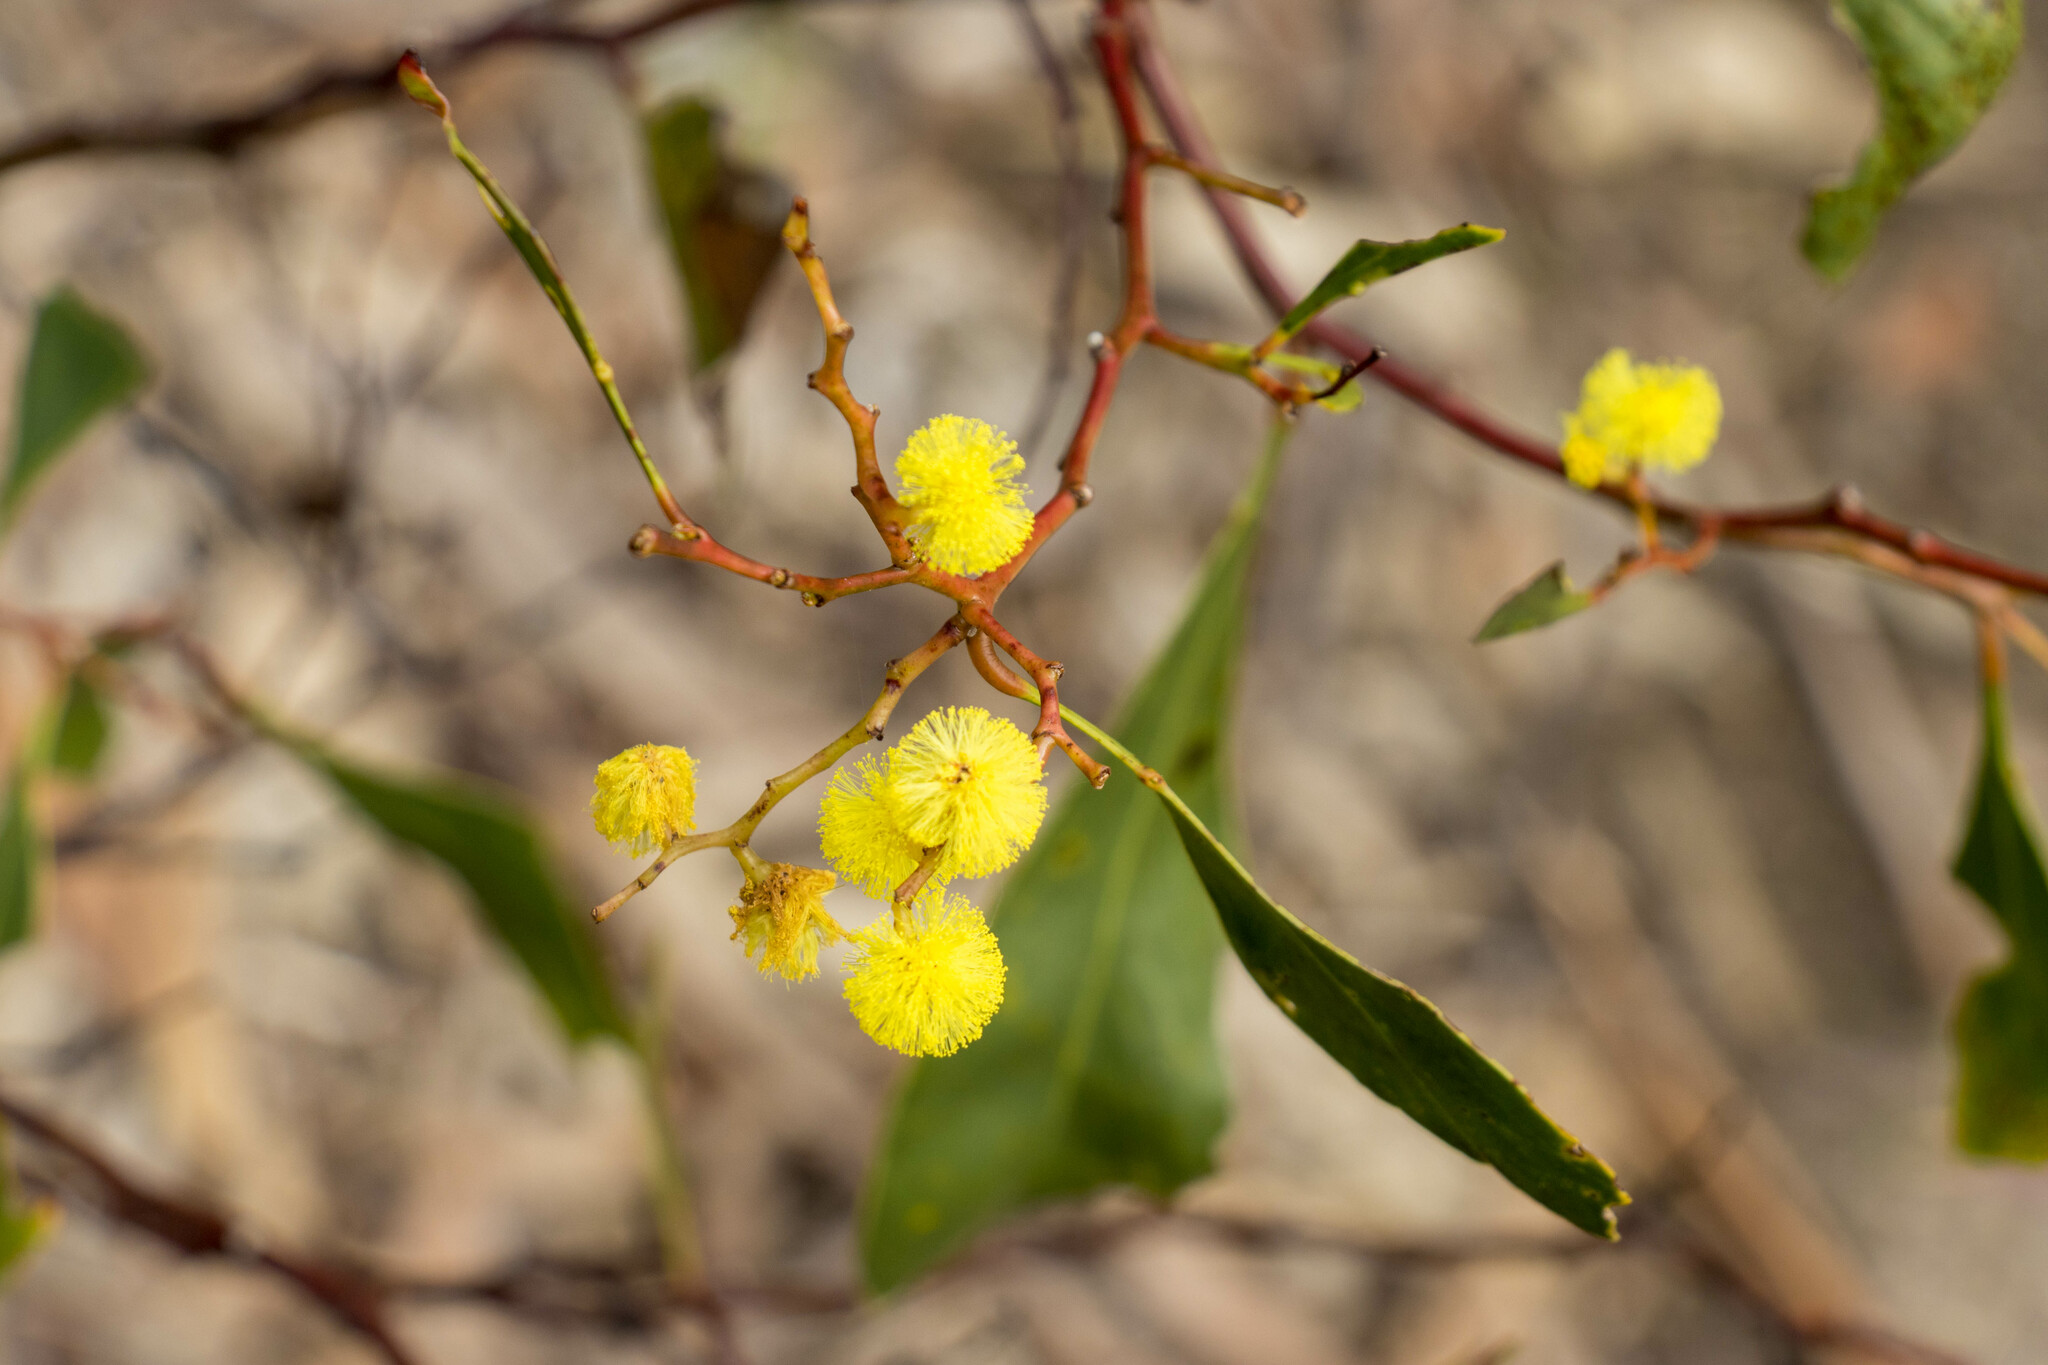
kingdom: Plantae
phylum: Tracheophyta
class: Magnoliopsida
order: Fabales
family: Fabaceae
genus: Acacia
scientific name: Acacia pycnantha
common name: Golden wattle
